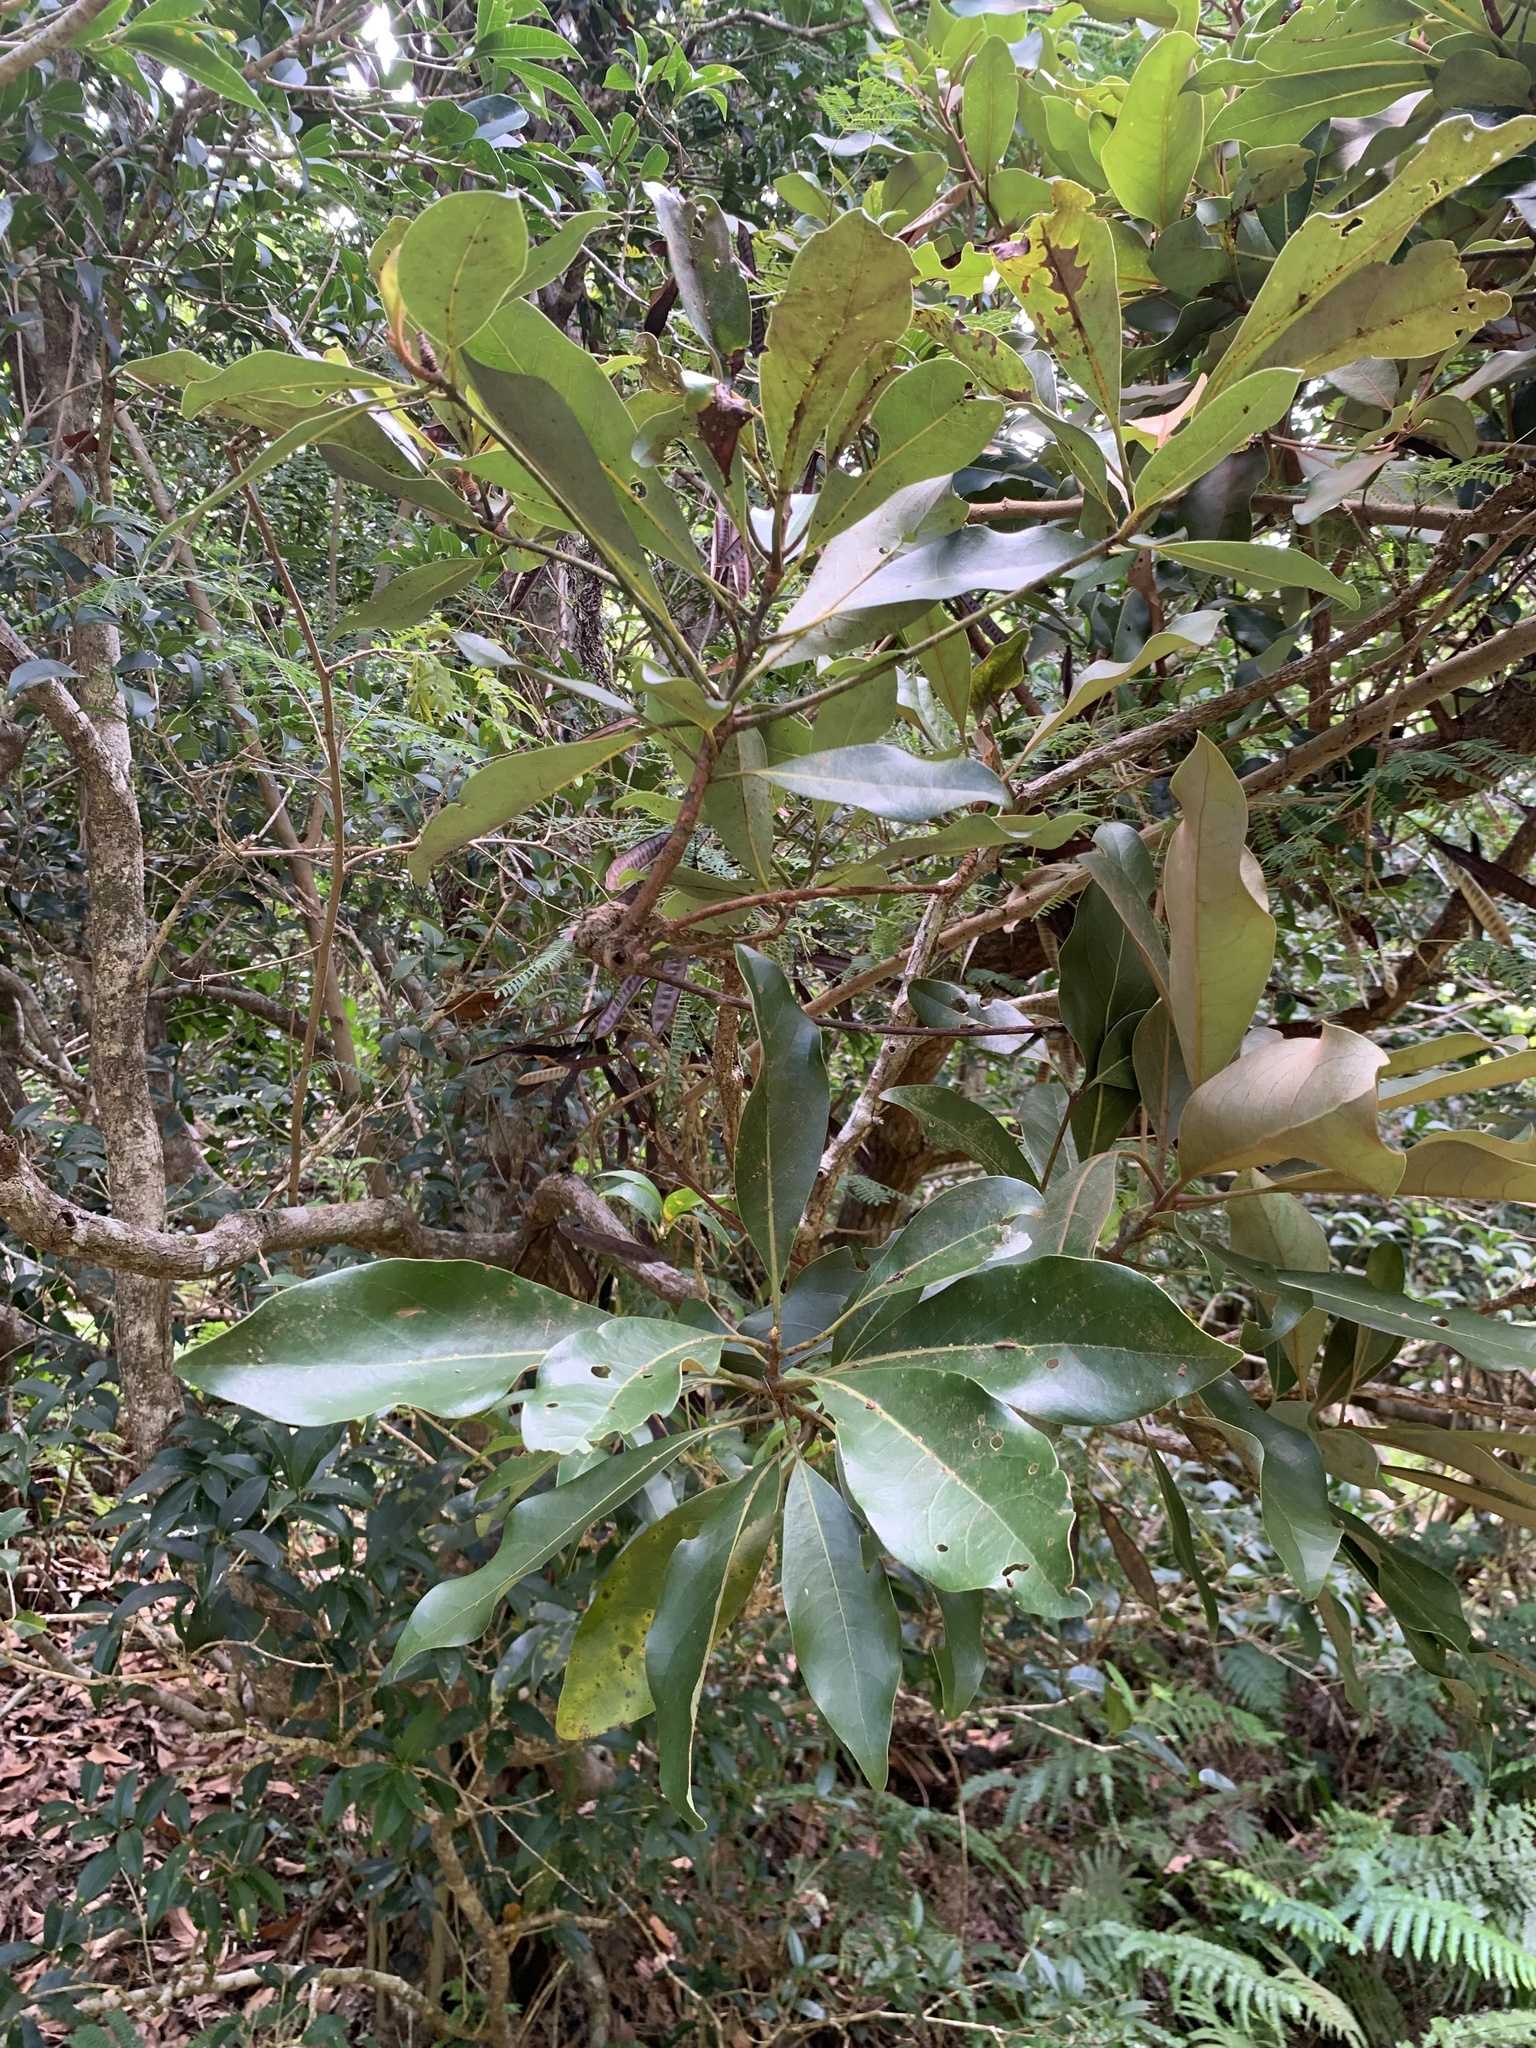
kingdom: Plantae
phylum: Tracheophyta
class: Magnoliopsida
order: Laurales
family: Lauraceae
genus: Machilus
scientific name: Machilus kobu
